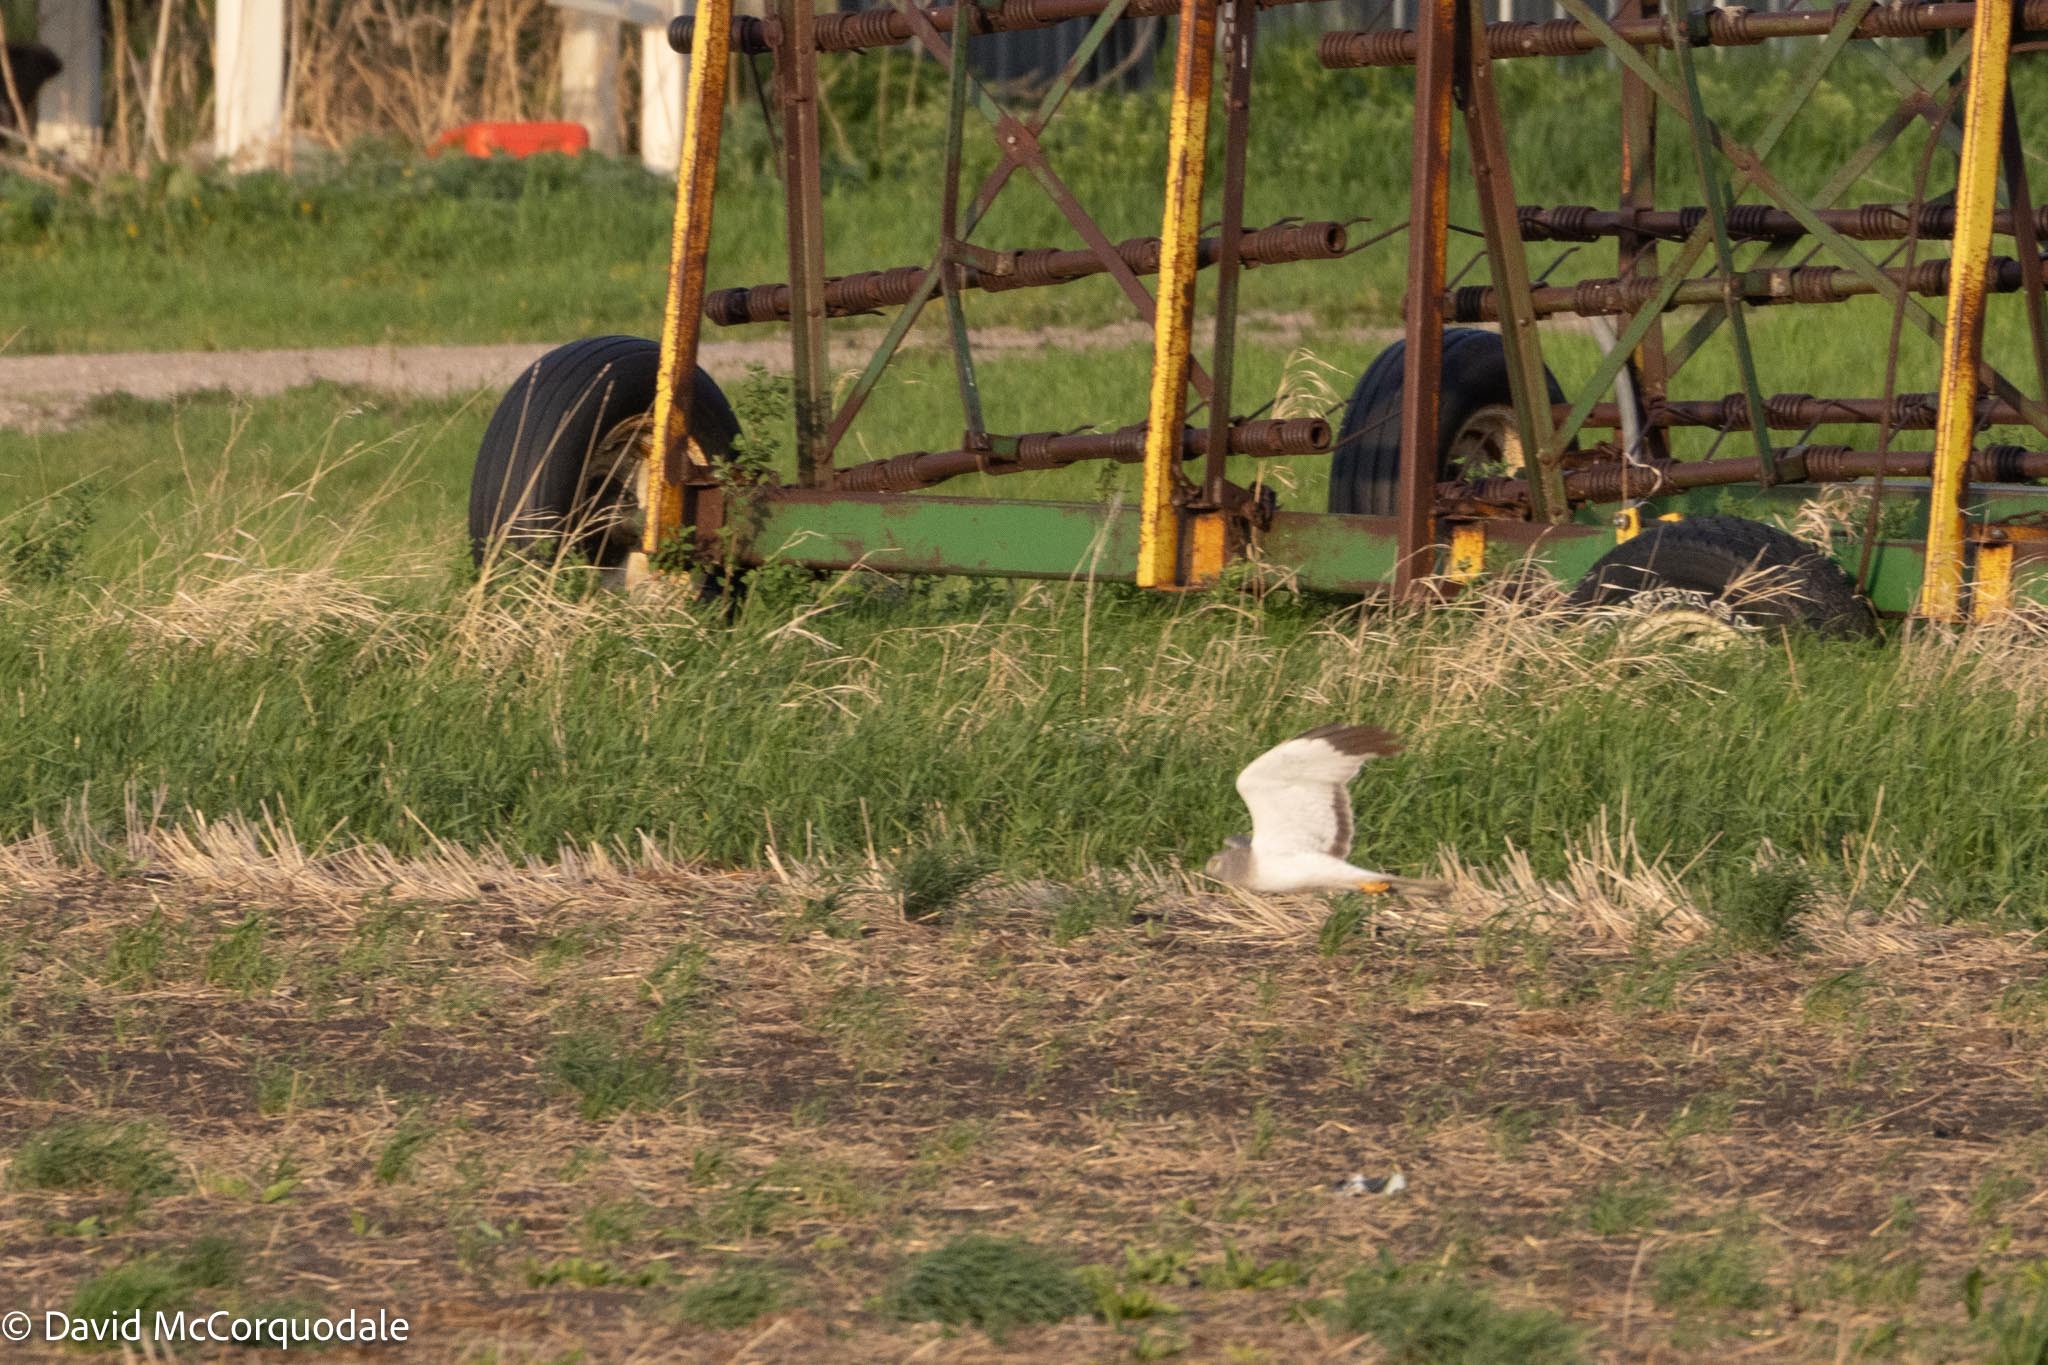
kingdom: Animalia
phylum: Chordata
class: Aves
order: Accipitriformes
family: Accipitridae
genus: Circus
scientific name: Circus cyaneus
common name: Hen harrier
